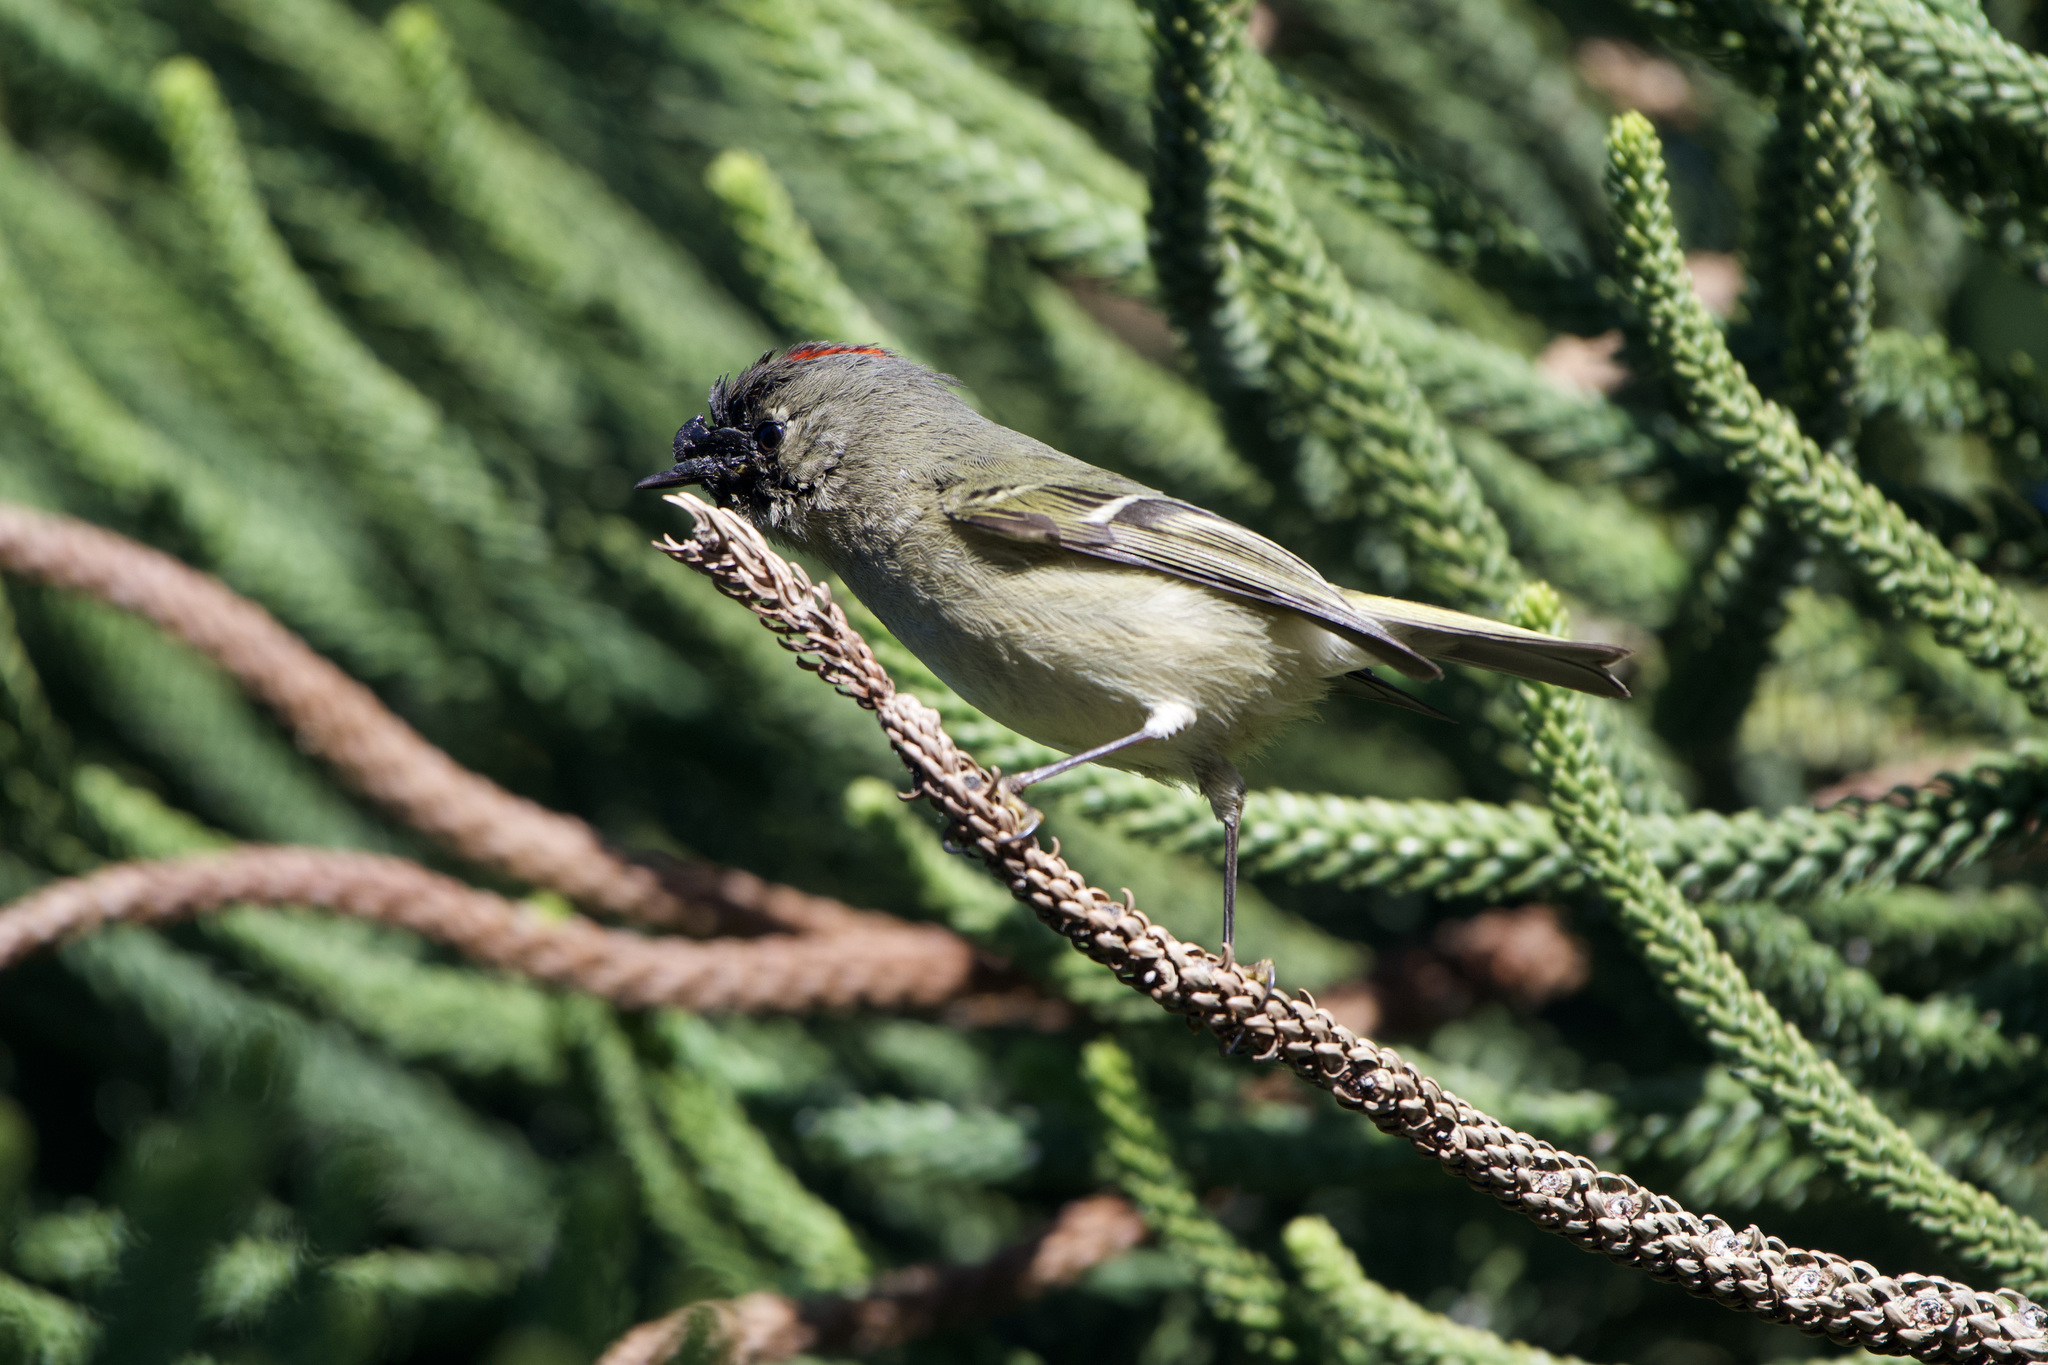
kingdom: Animalia
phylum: Chordata
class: Aves
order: Passeriformes
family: Regulidae
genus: Regulus
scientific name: Regulus calendula
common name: Ruby-crowned kinglet
